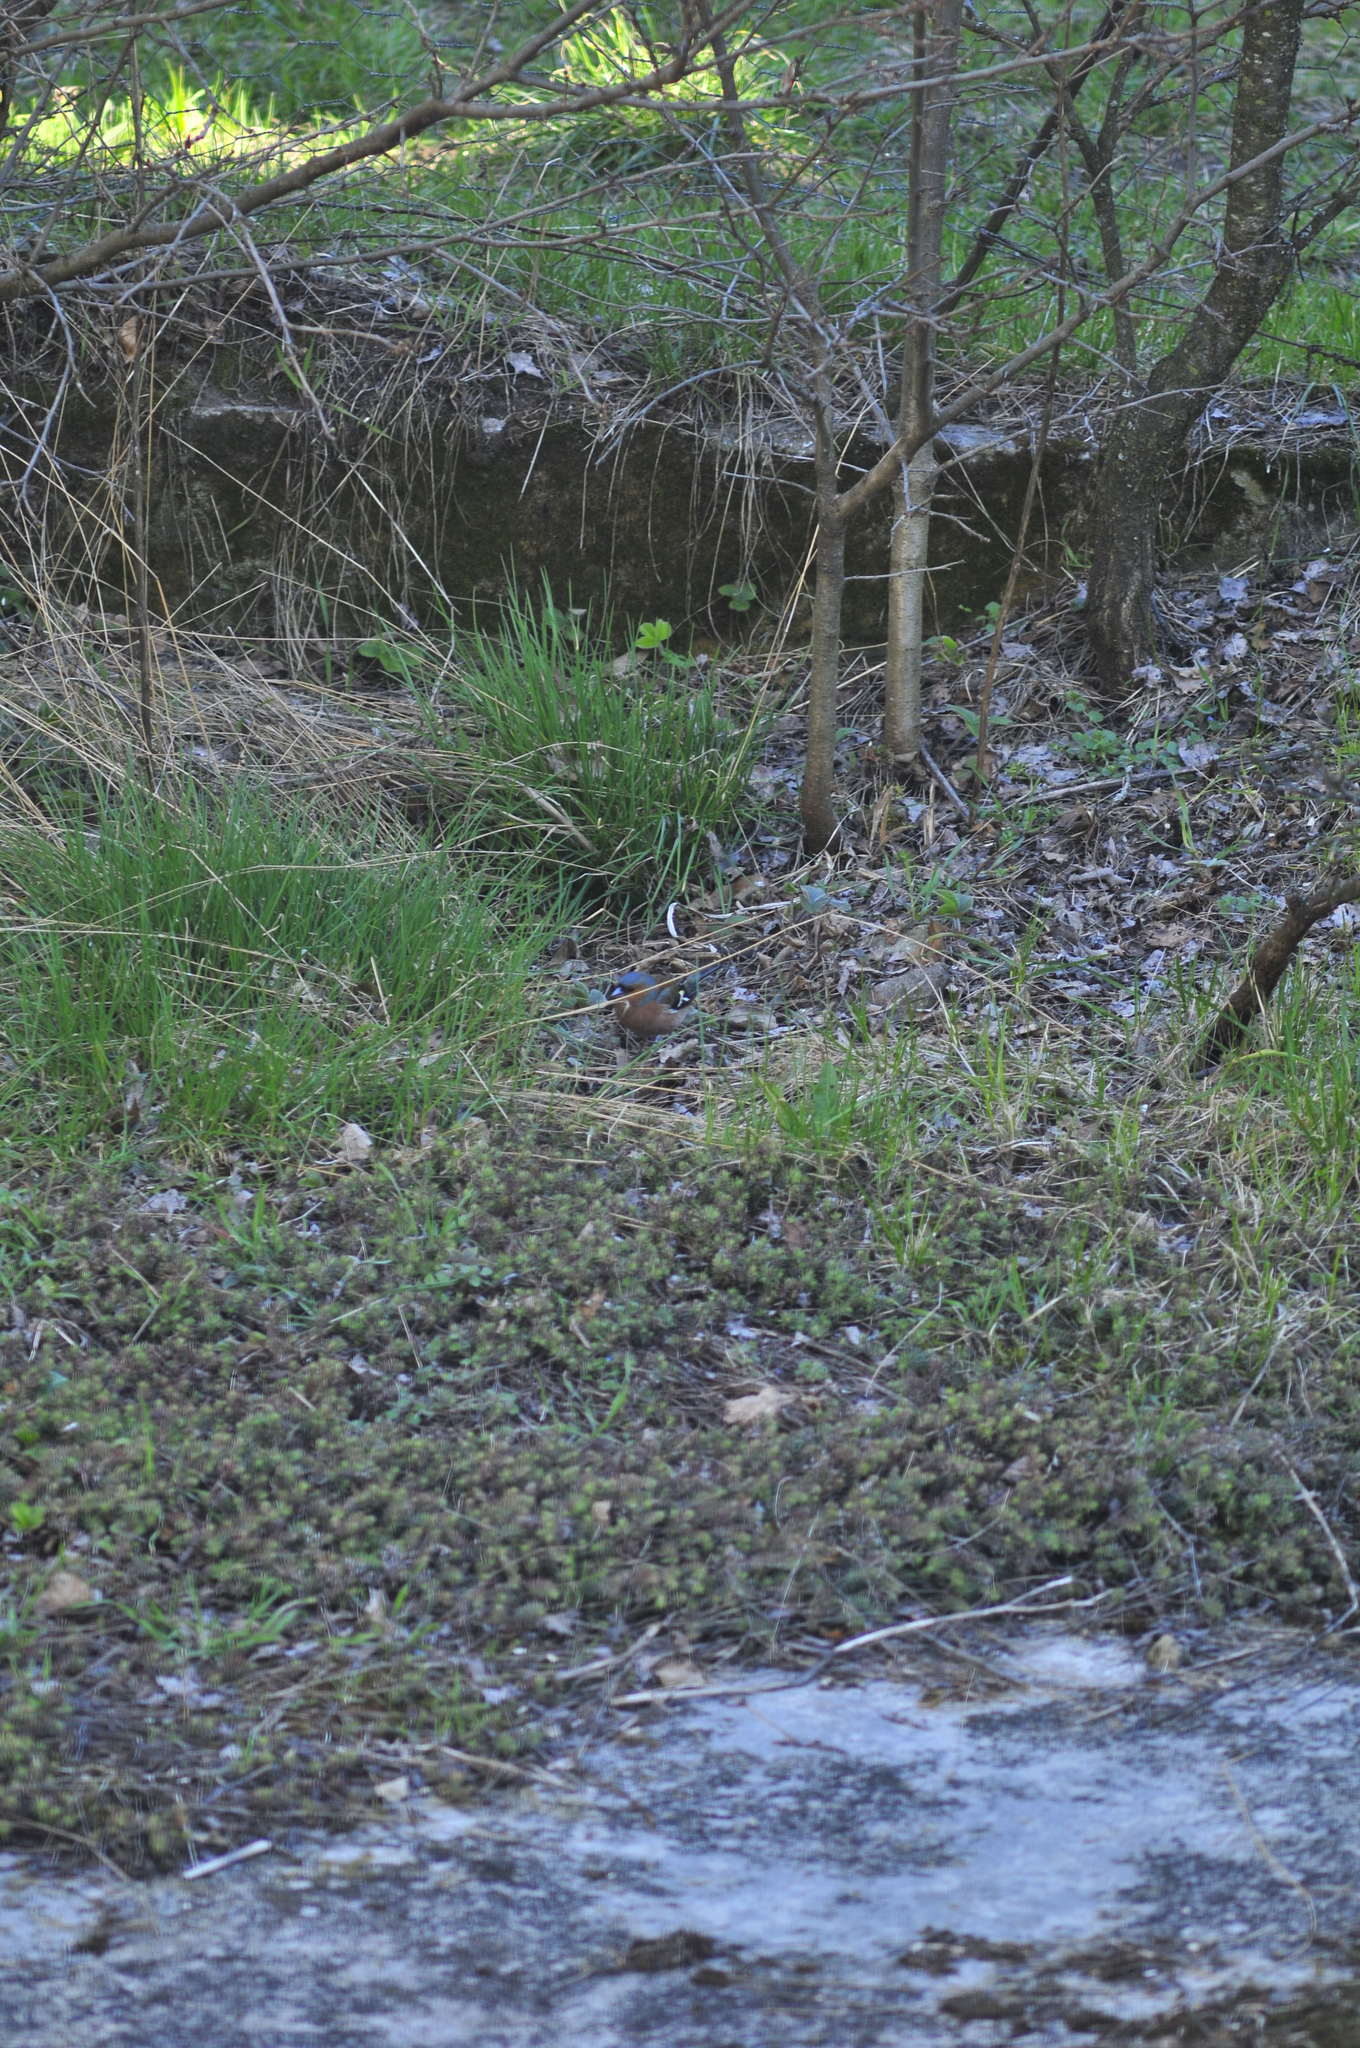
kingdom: Animalia
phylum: Chordata
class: Aves
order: Passeriformes
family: Fringillidae
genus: Fringilla
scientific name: Fringilla coelebs
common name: Common chaffinch
